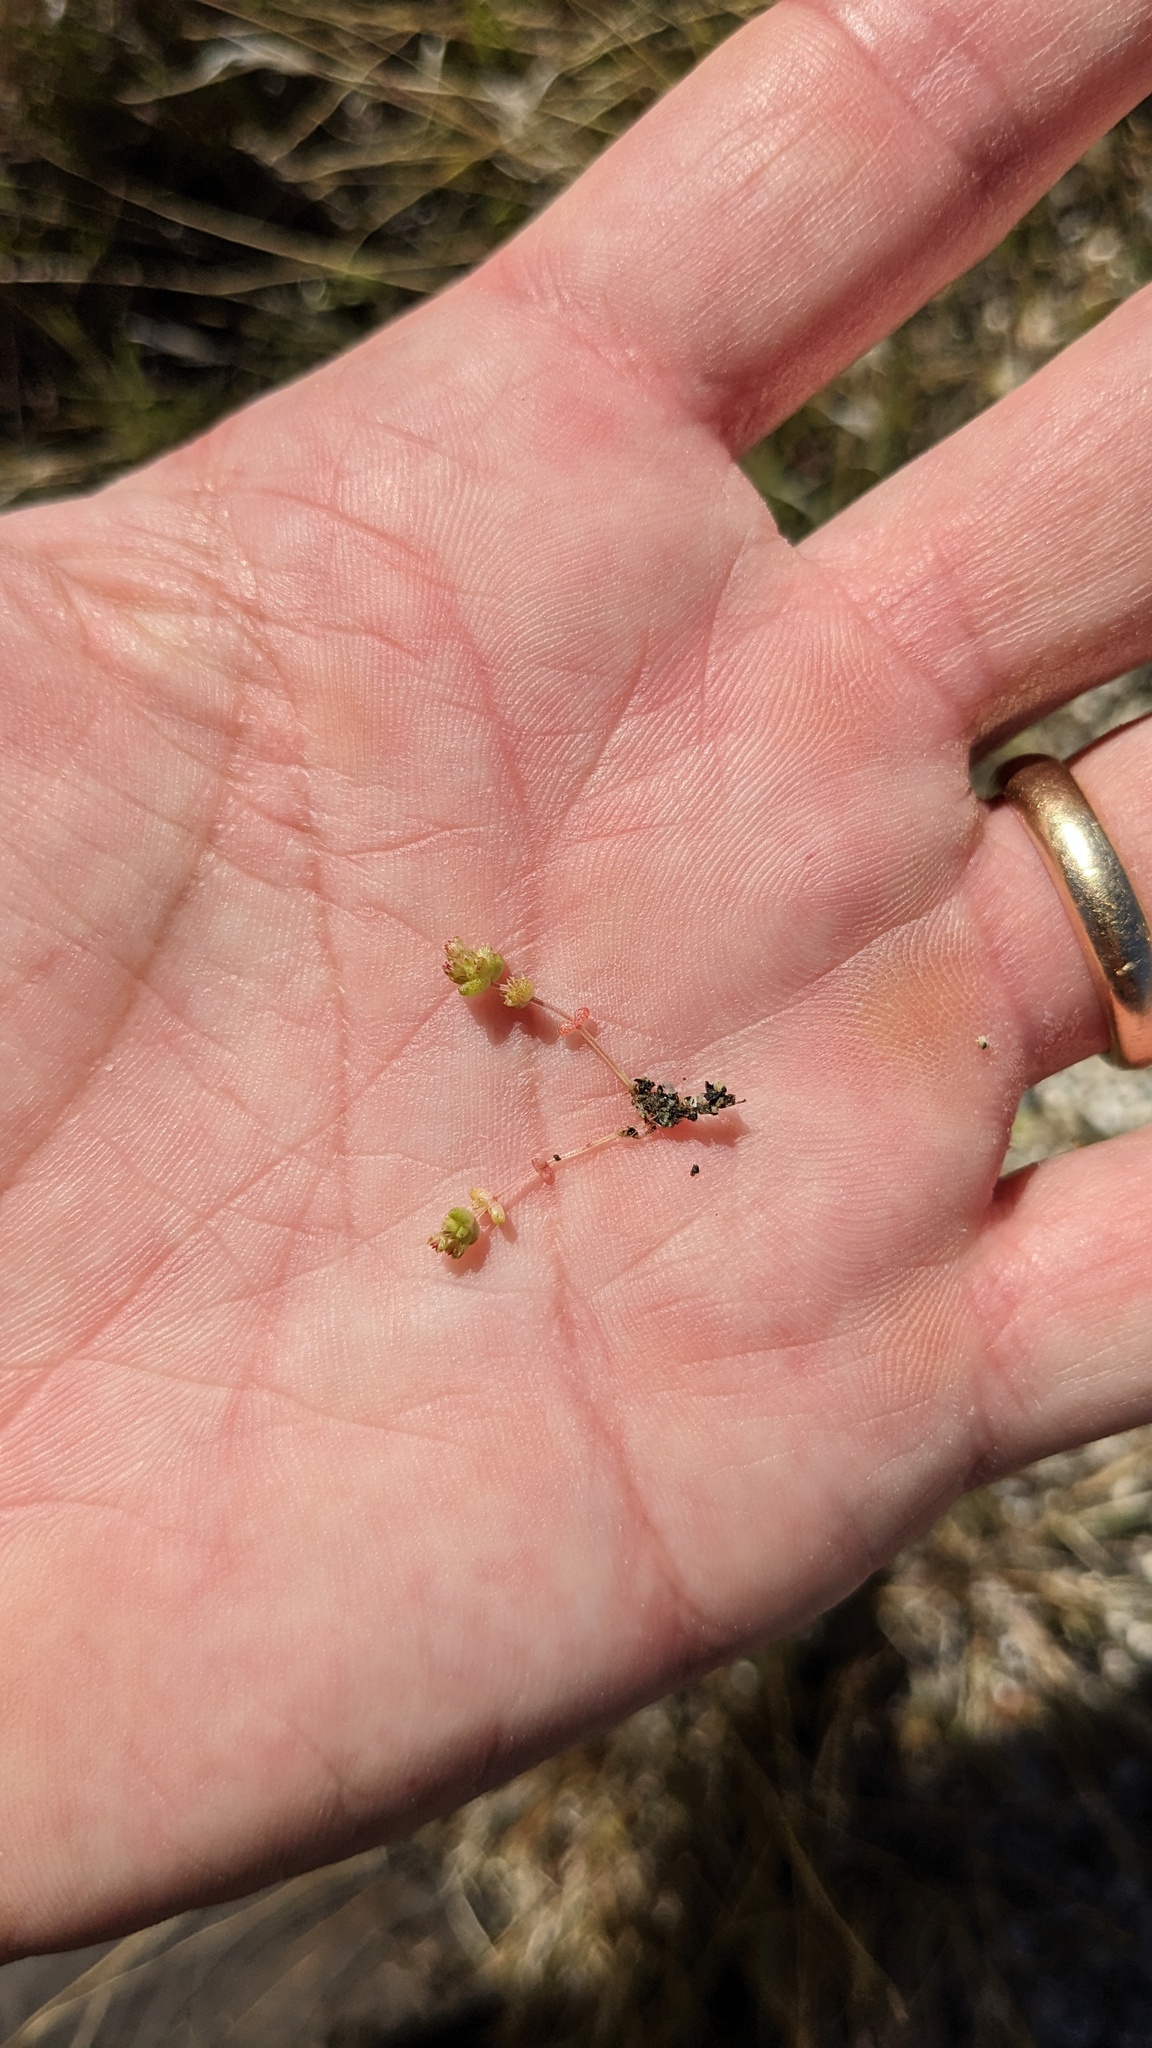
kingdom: Plantae
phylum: Tracheophyta
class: Magnoliopsida
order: Saxifragales
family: Crassulaceae
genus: Crassula
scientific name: Crassula connata
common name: Erect pygmyweed
